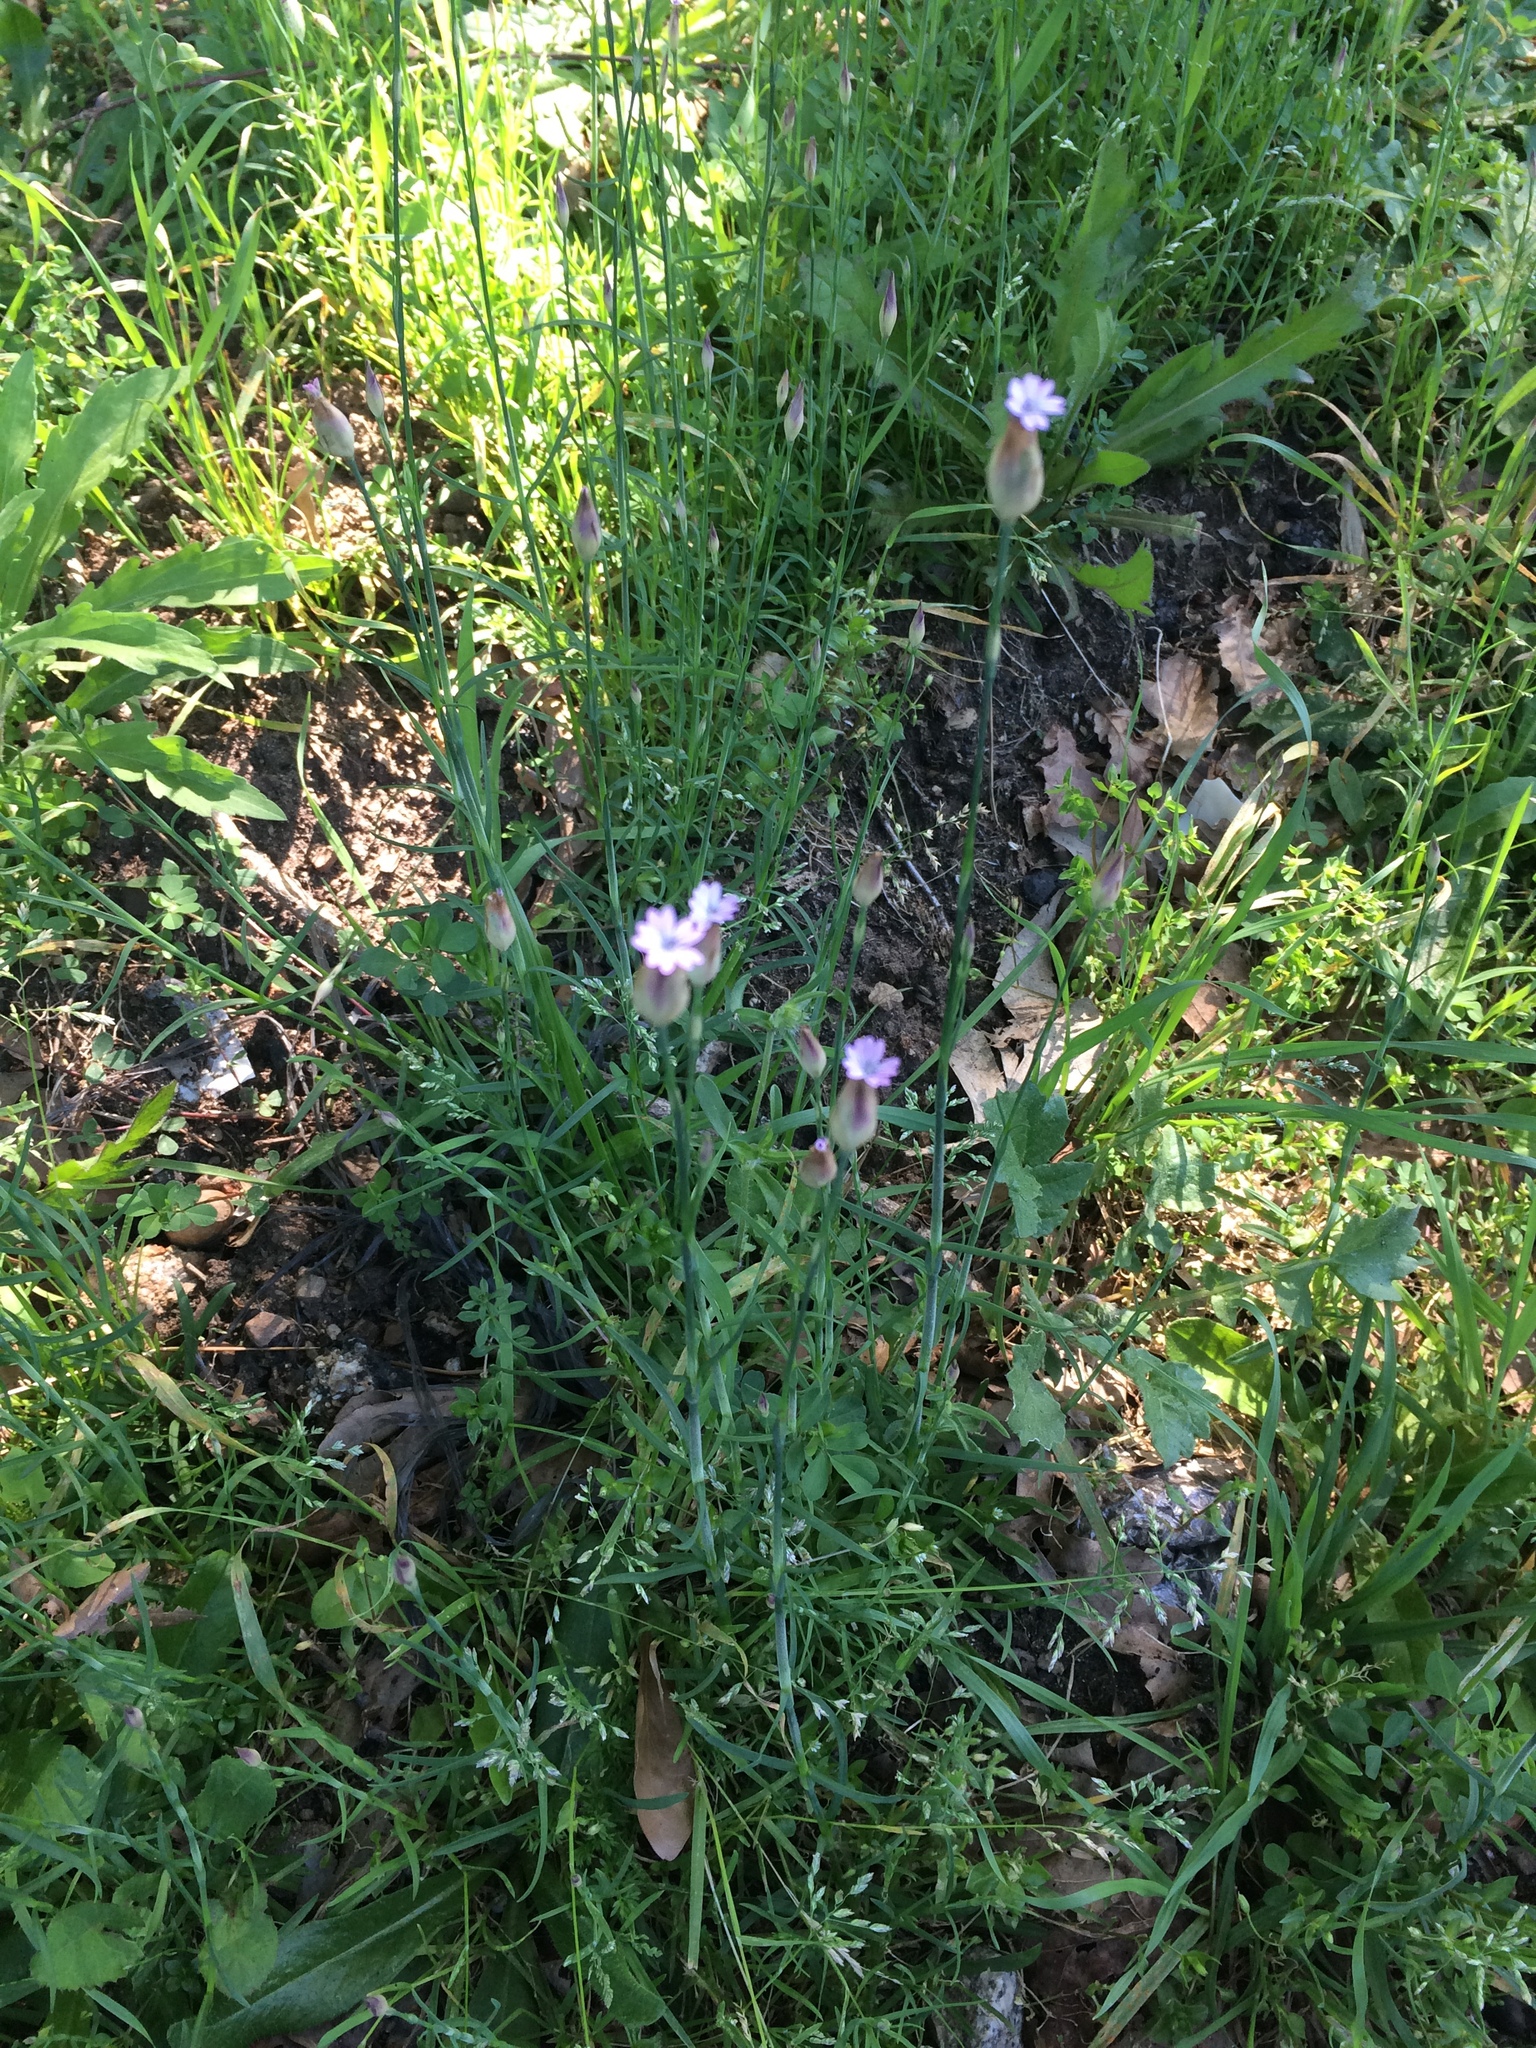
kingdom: Plantae
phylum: Tracheophyta
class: Magnoliopsida
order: Caryophyllales
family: Caryophyllaceae
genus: Petrorhagia
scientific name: Petrorhagia prolifera
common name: Proliferous pink
